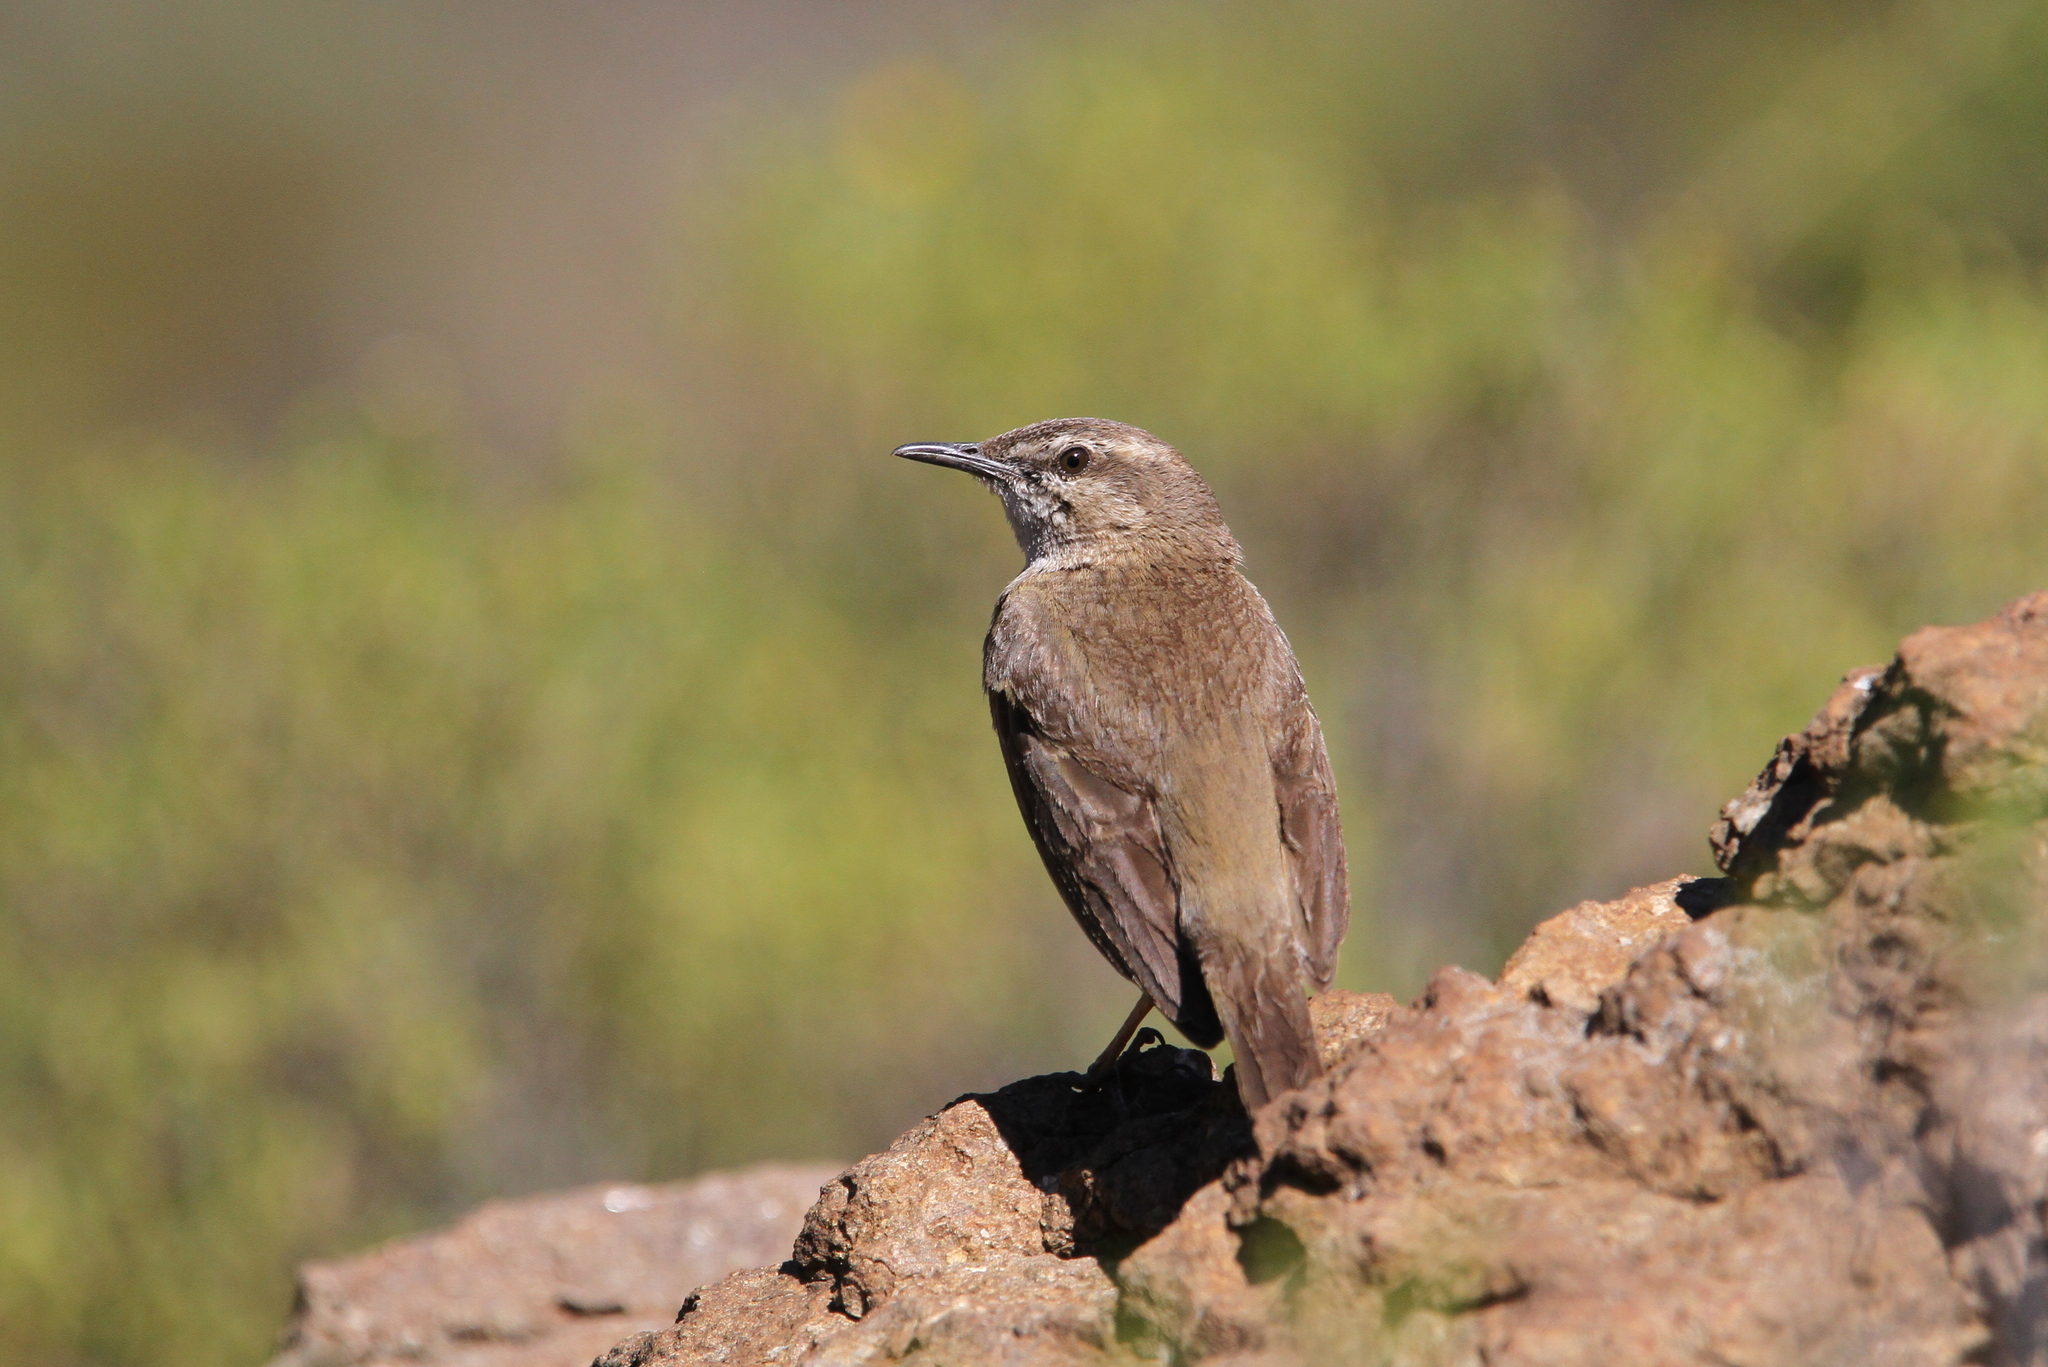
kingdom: Animalia
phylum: Chordata
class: Aves
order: Passeriformes
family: Motacillidae
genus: Anthus
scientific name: Anthus crenatus
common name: African rock pipit
